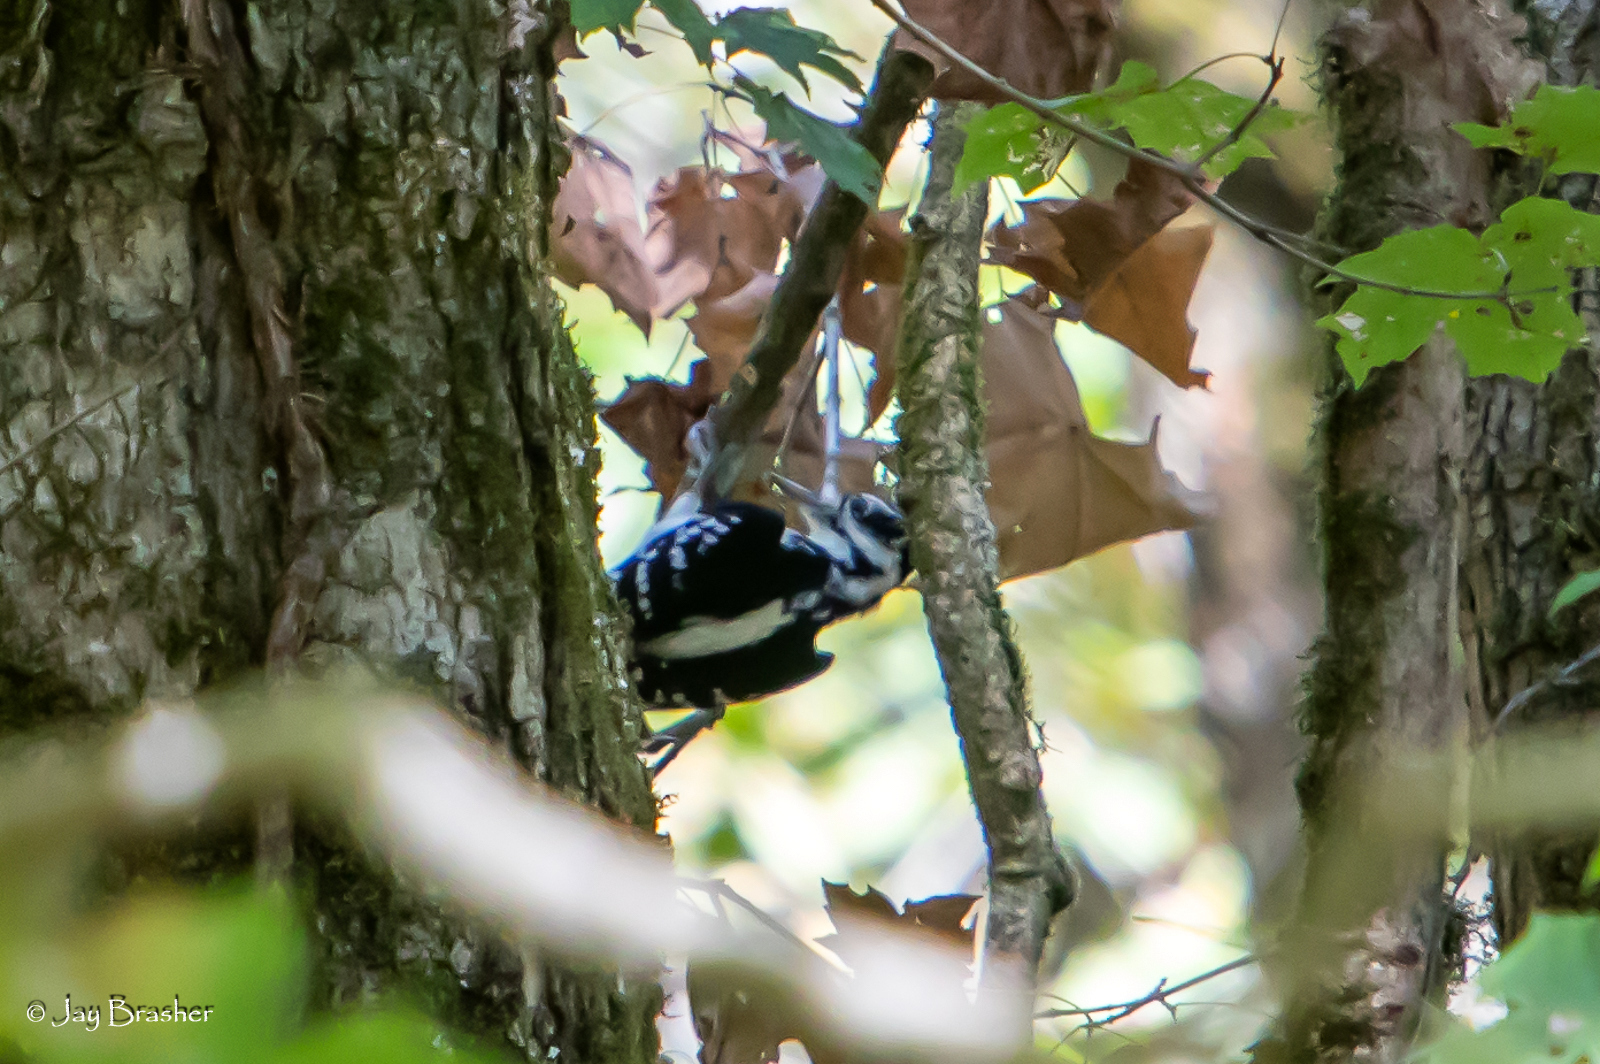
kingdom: Animalia
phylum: Chordata
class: Aves
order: Piciformes
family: Picidae
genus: Leuconotopicus
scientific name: Leuconotopicus villosus
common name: Hairy woodpecker
